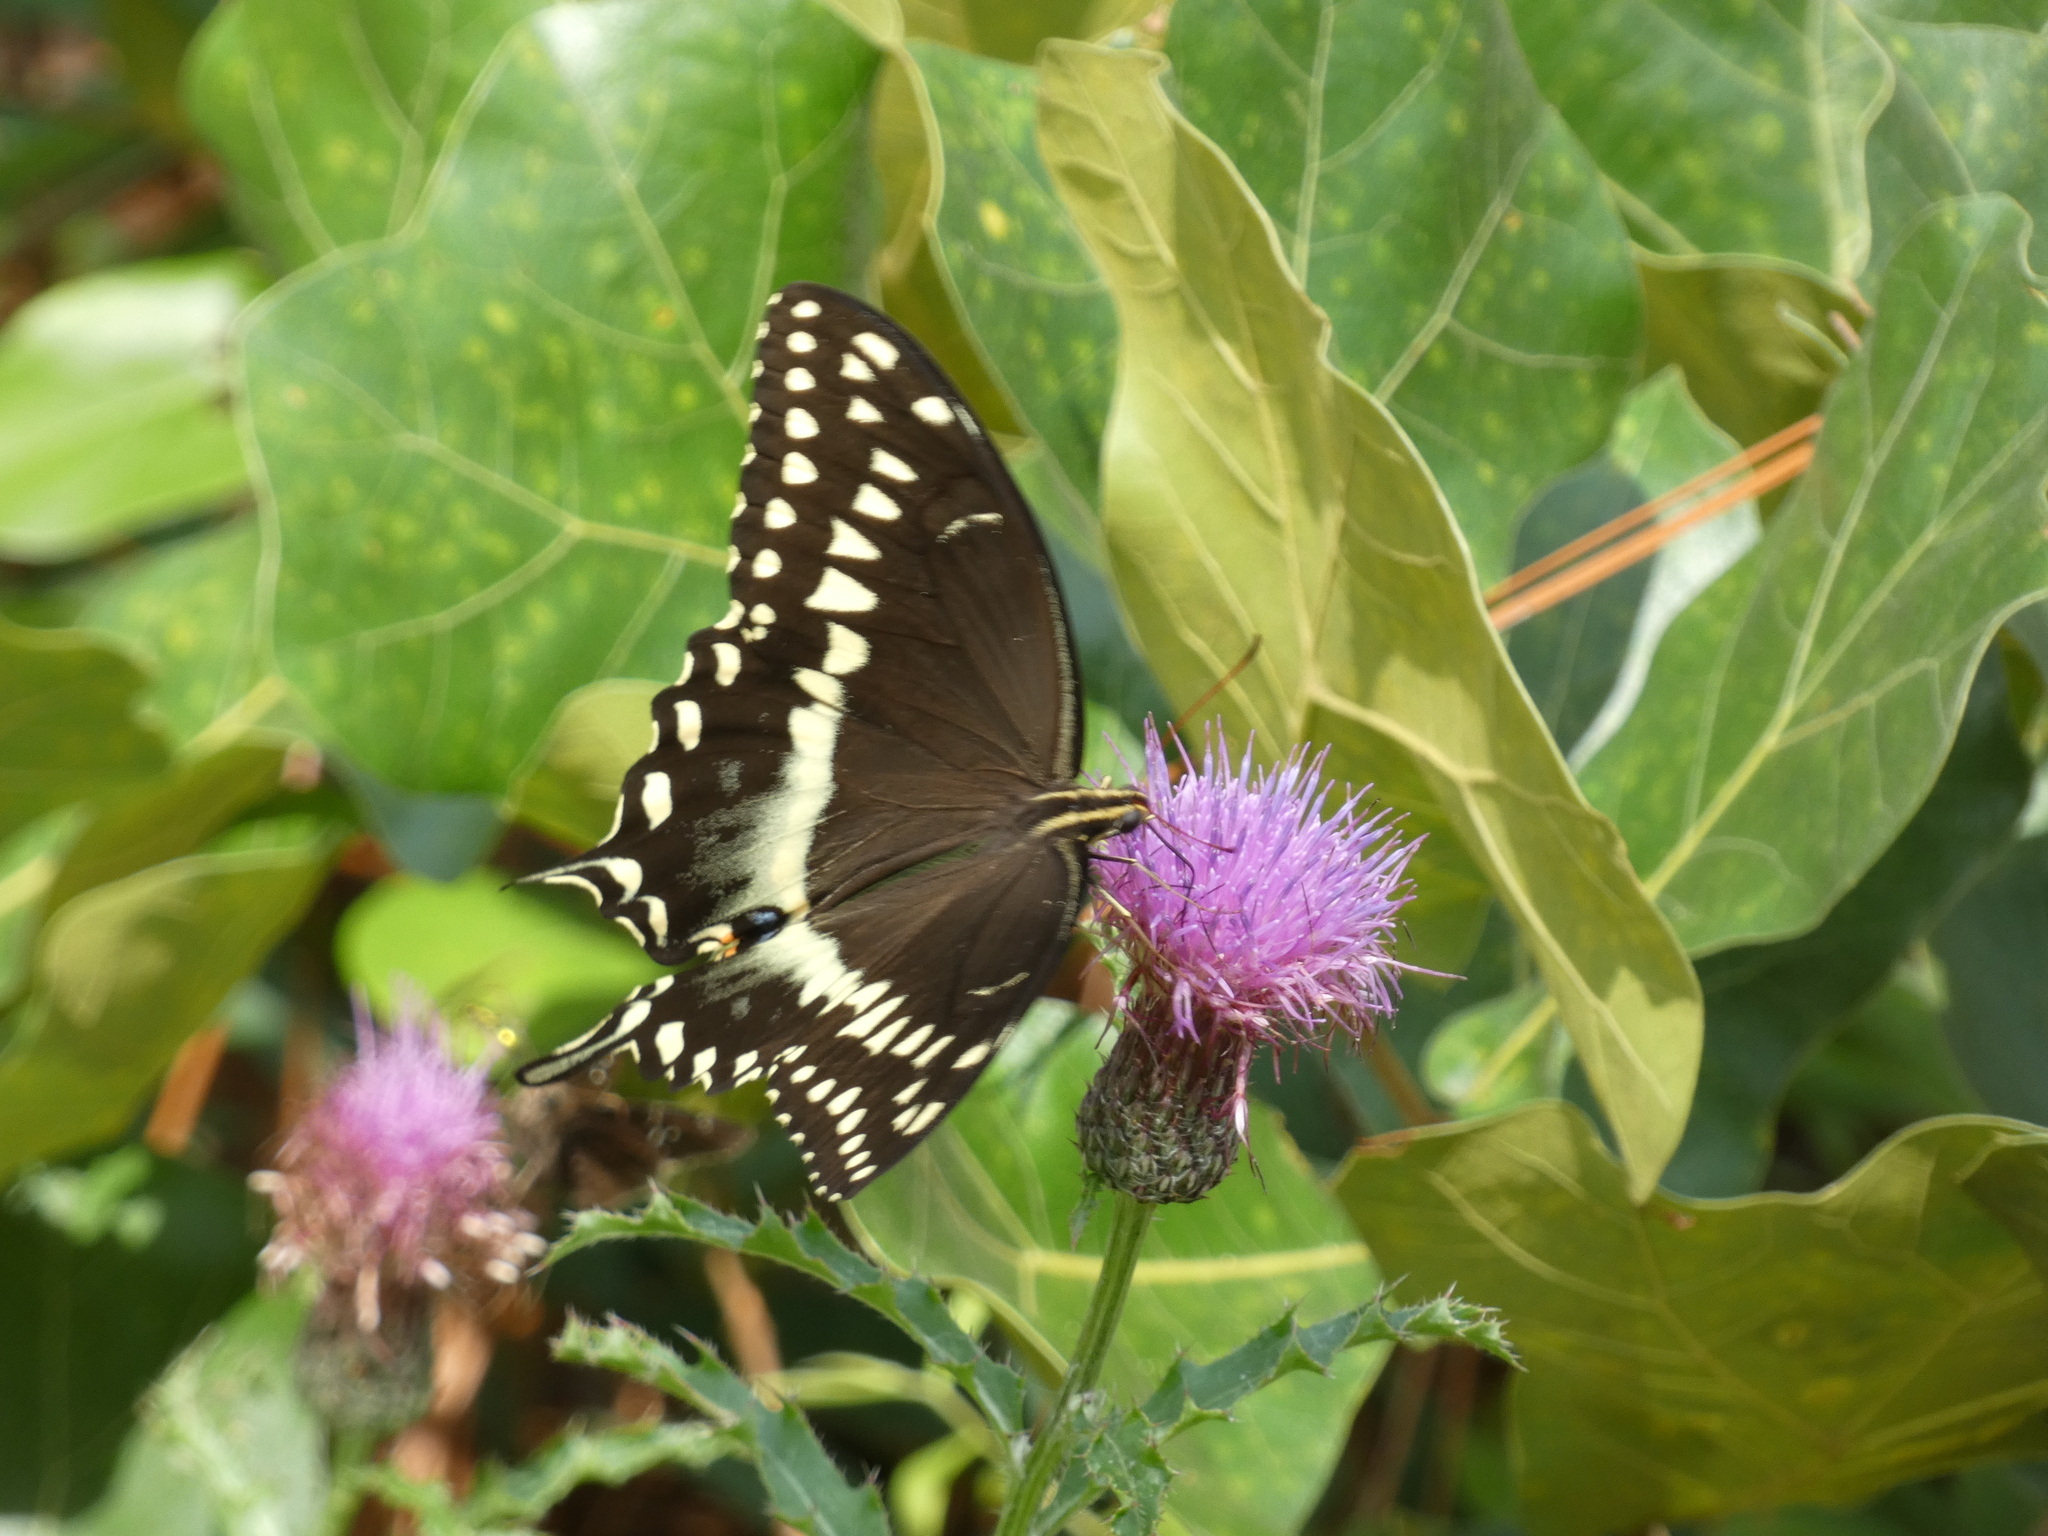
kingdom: Animalia
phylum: Arthropoda
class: Insecta
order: Lepidoptera
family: Papilionidae
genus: Papilio
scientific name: Papilio palamedes
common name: Palamedes swallowtail
